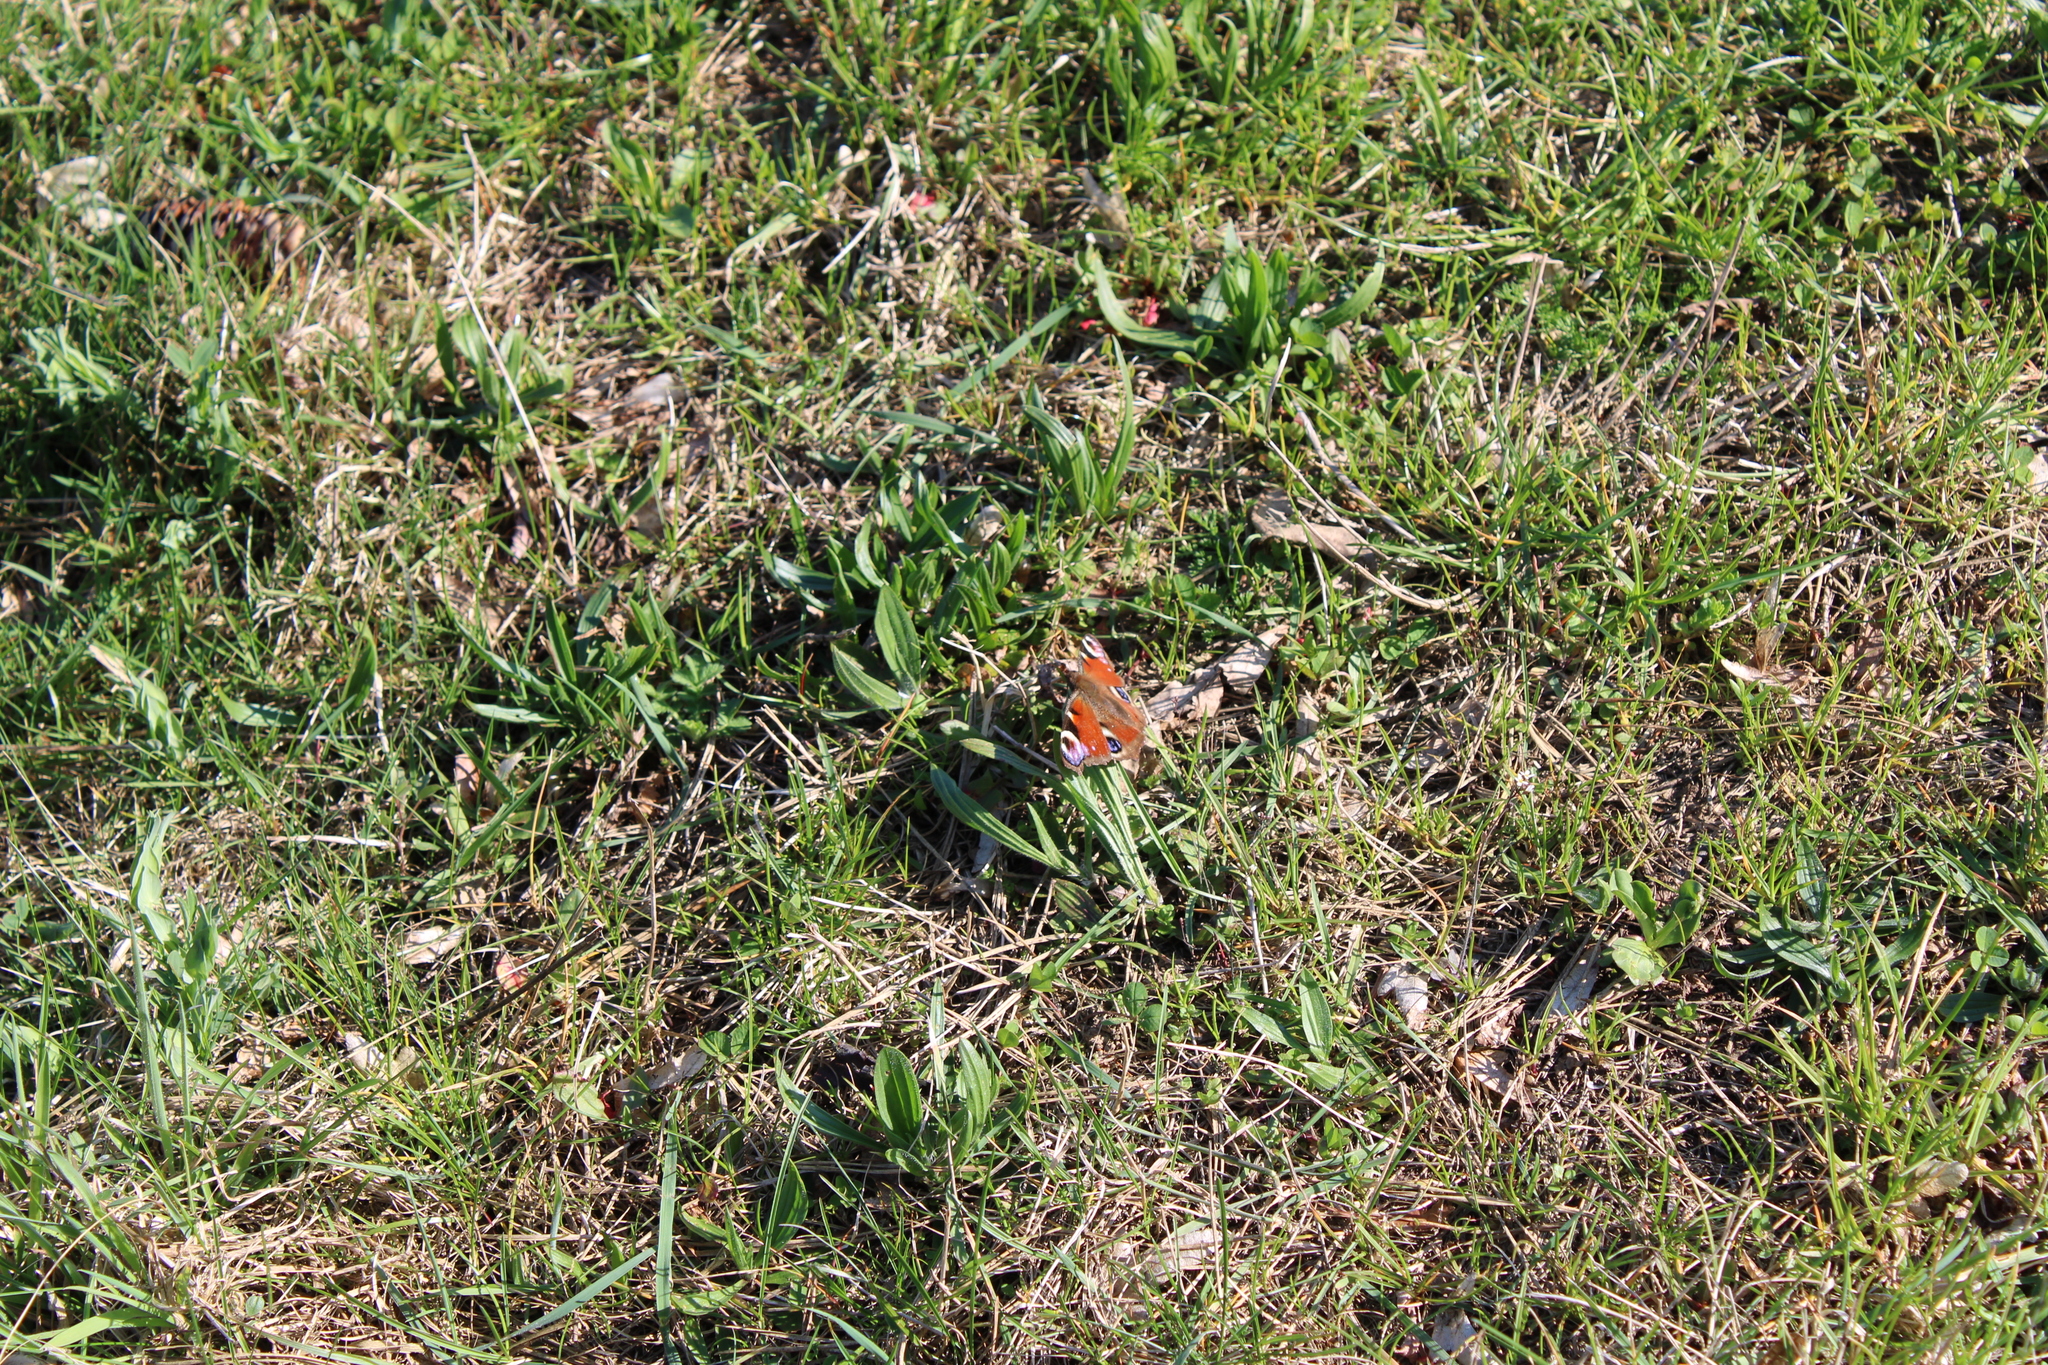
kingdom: Animalia
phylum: Arthropoda
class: Insecta
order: Lepidoptera
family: Nymphalidae
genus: Aglais
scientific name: Aglais io
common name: Peacock
